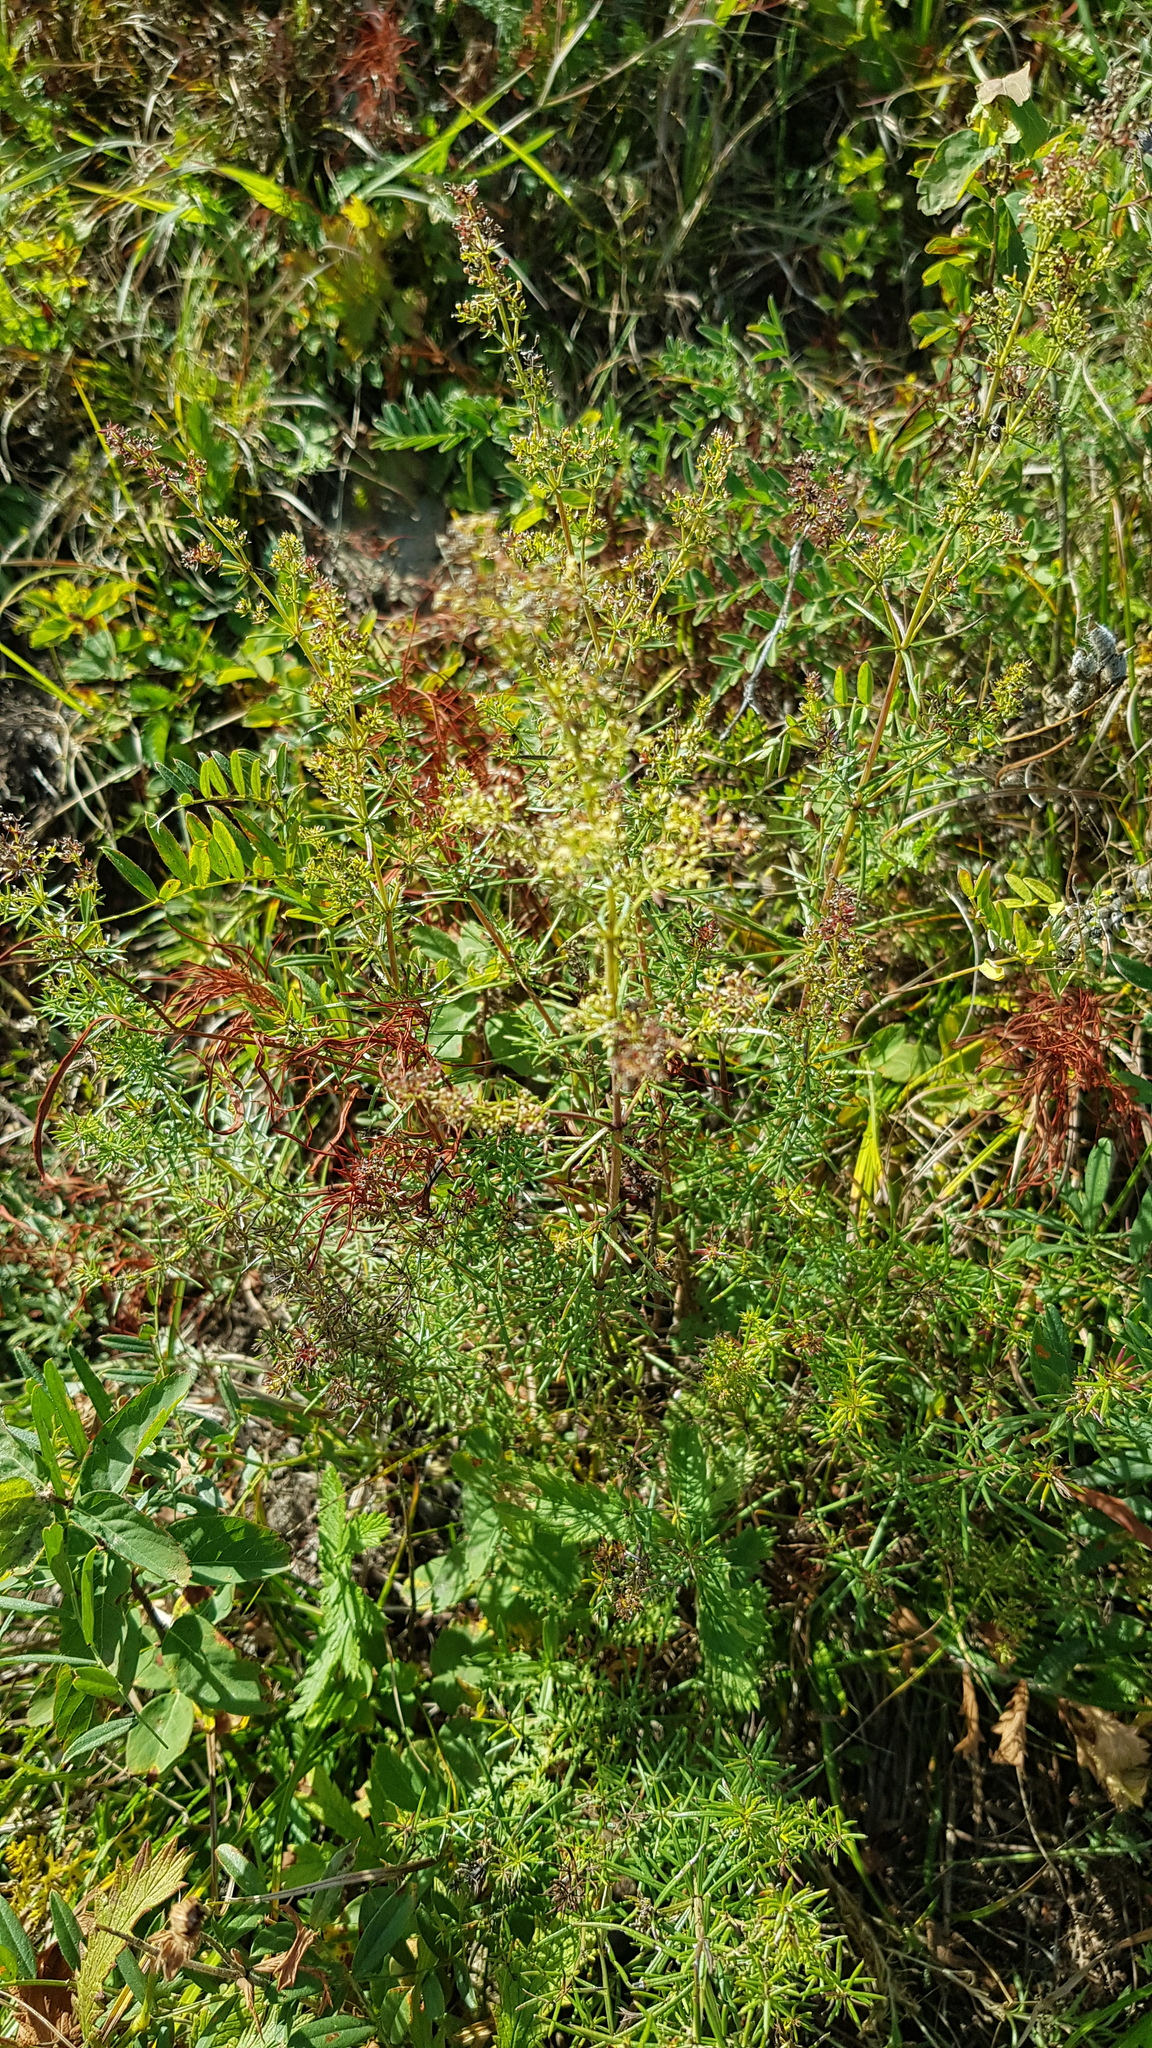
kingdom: Plantae
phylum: Tracheophyta
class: Magnoliopsida
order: Gentianales
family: Rubiaceae
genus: Galium
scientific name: Galium verum
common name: Lady's bedstraw
